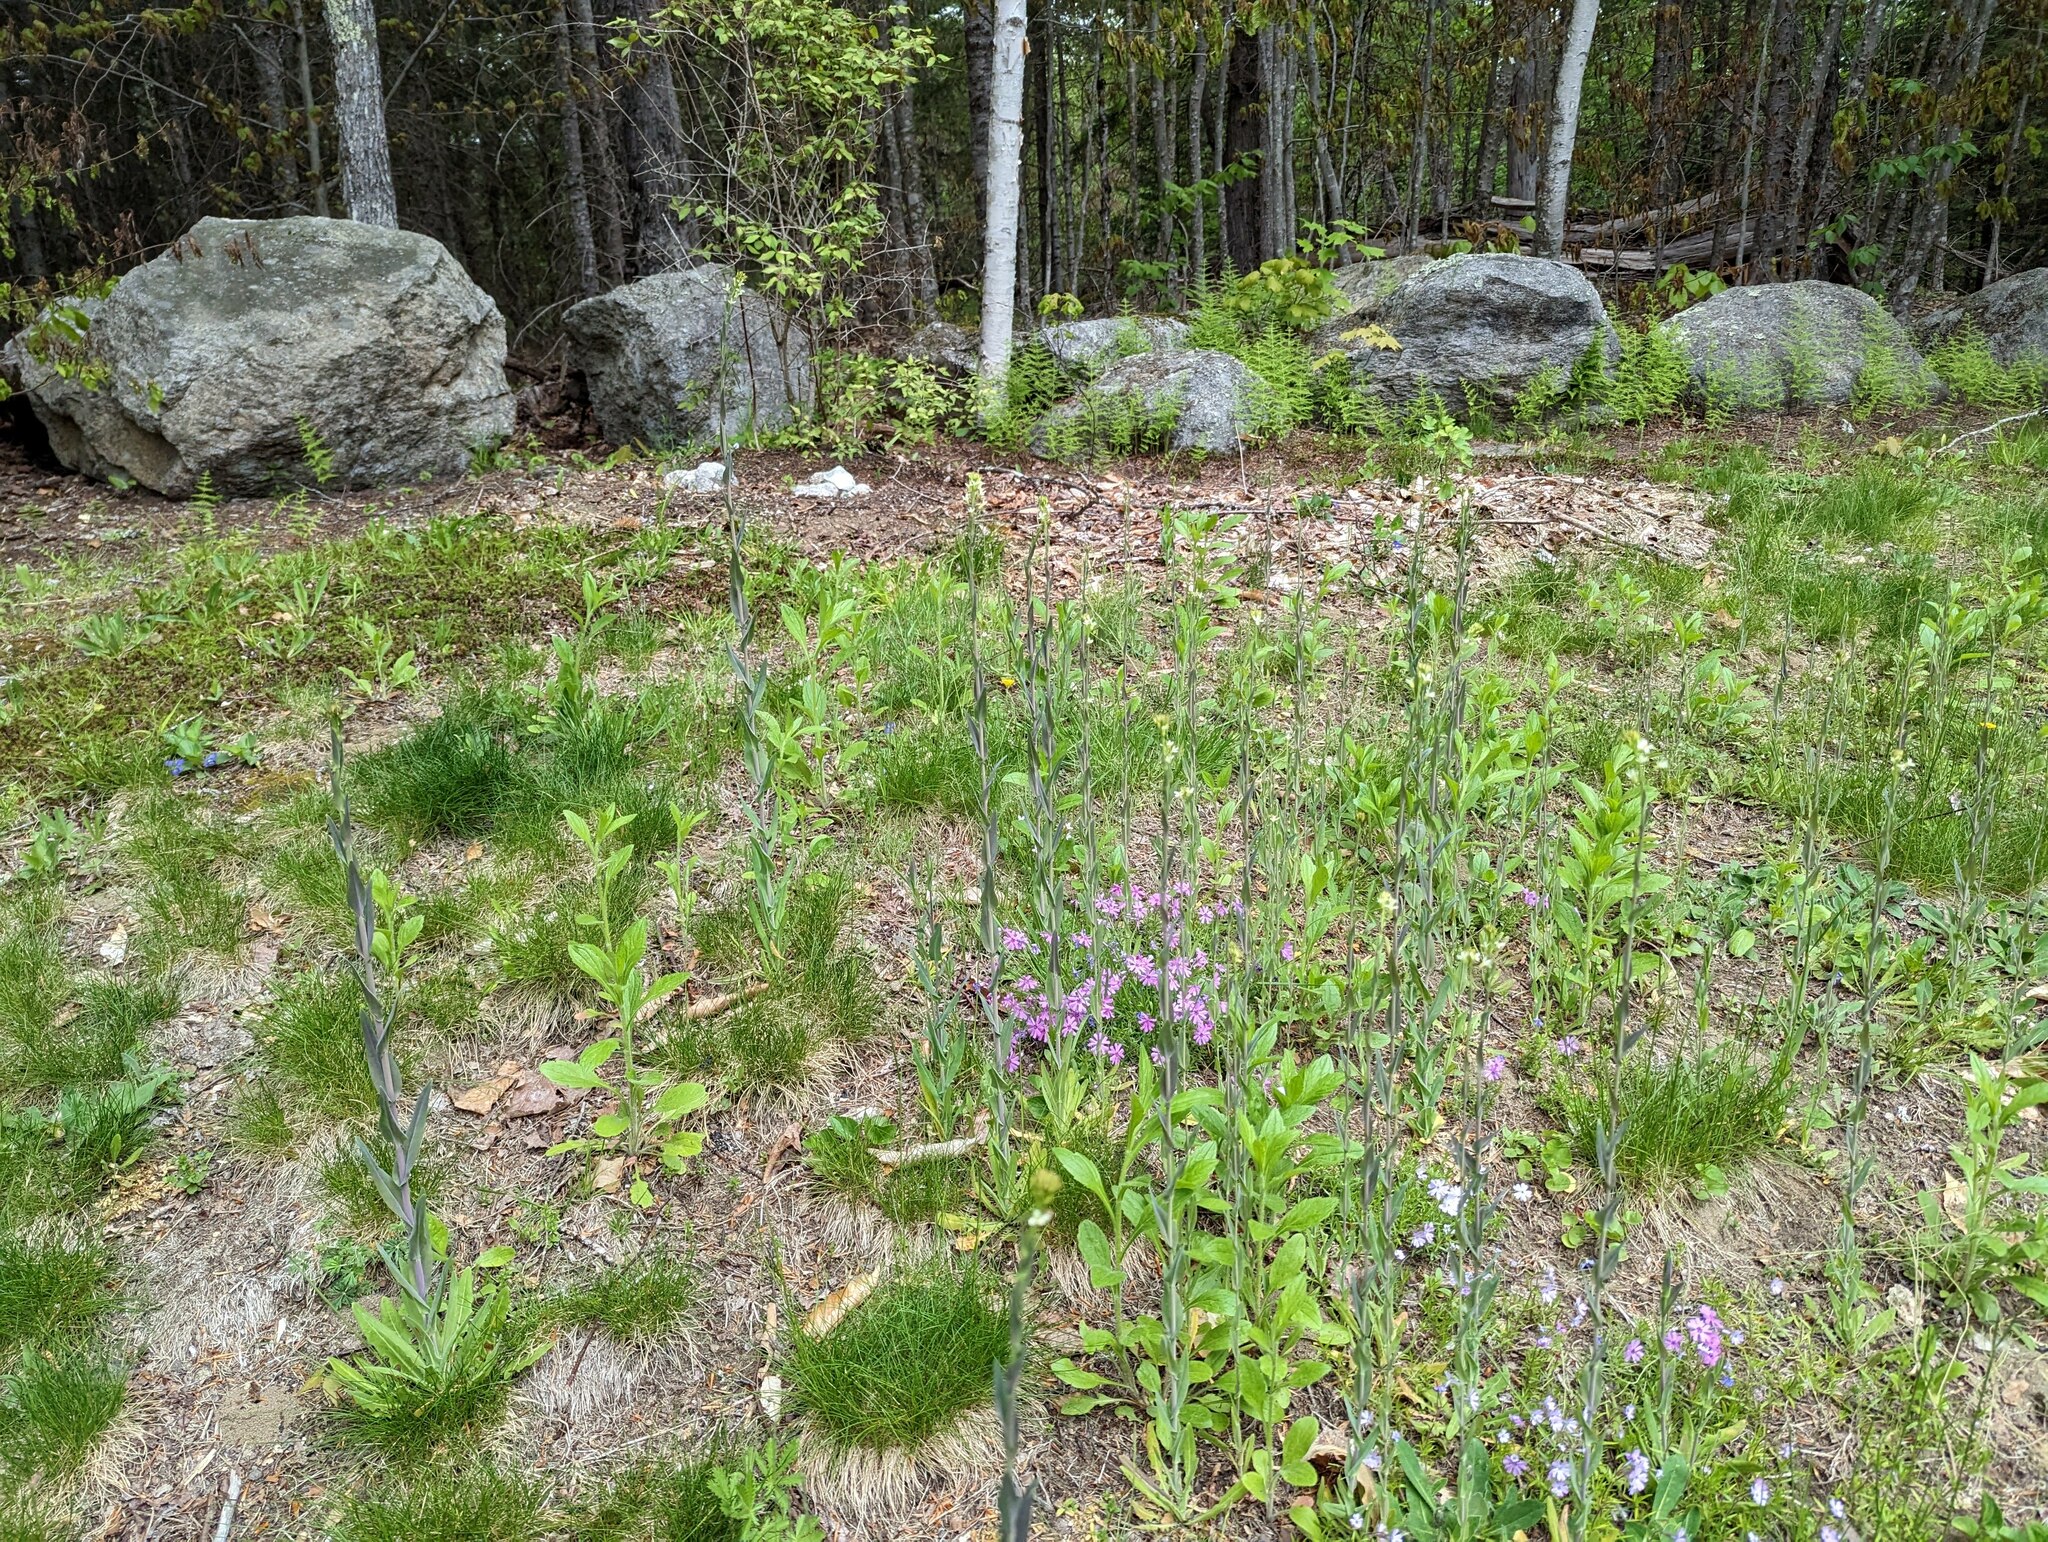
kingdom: Plantae
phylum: Tracheophyta
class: Magnoliopsida
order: Brassicales
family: Brassicaceae
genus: Turritis
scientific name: Turritis glabra
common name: Tower rockcress
